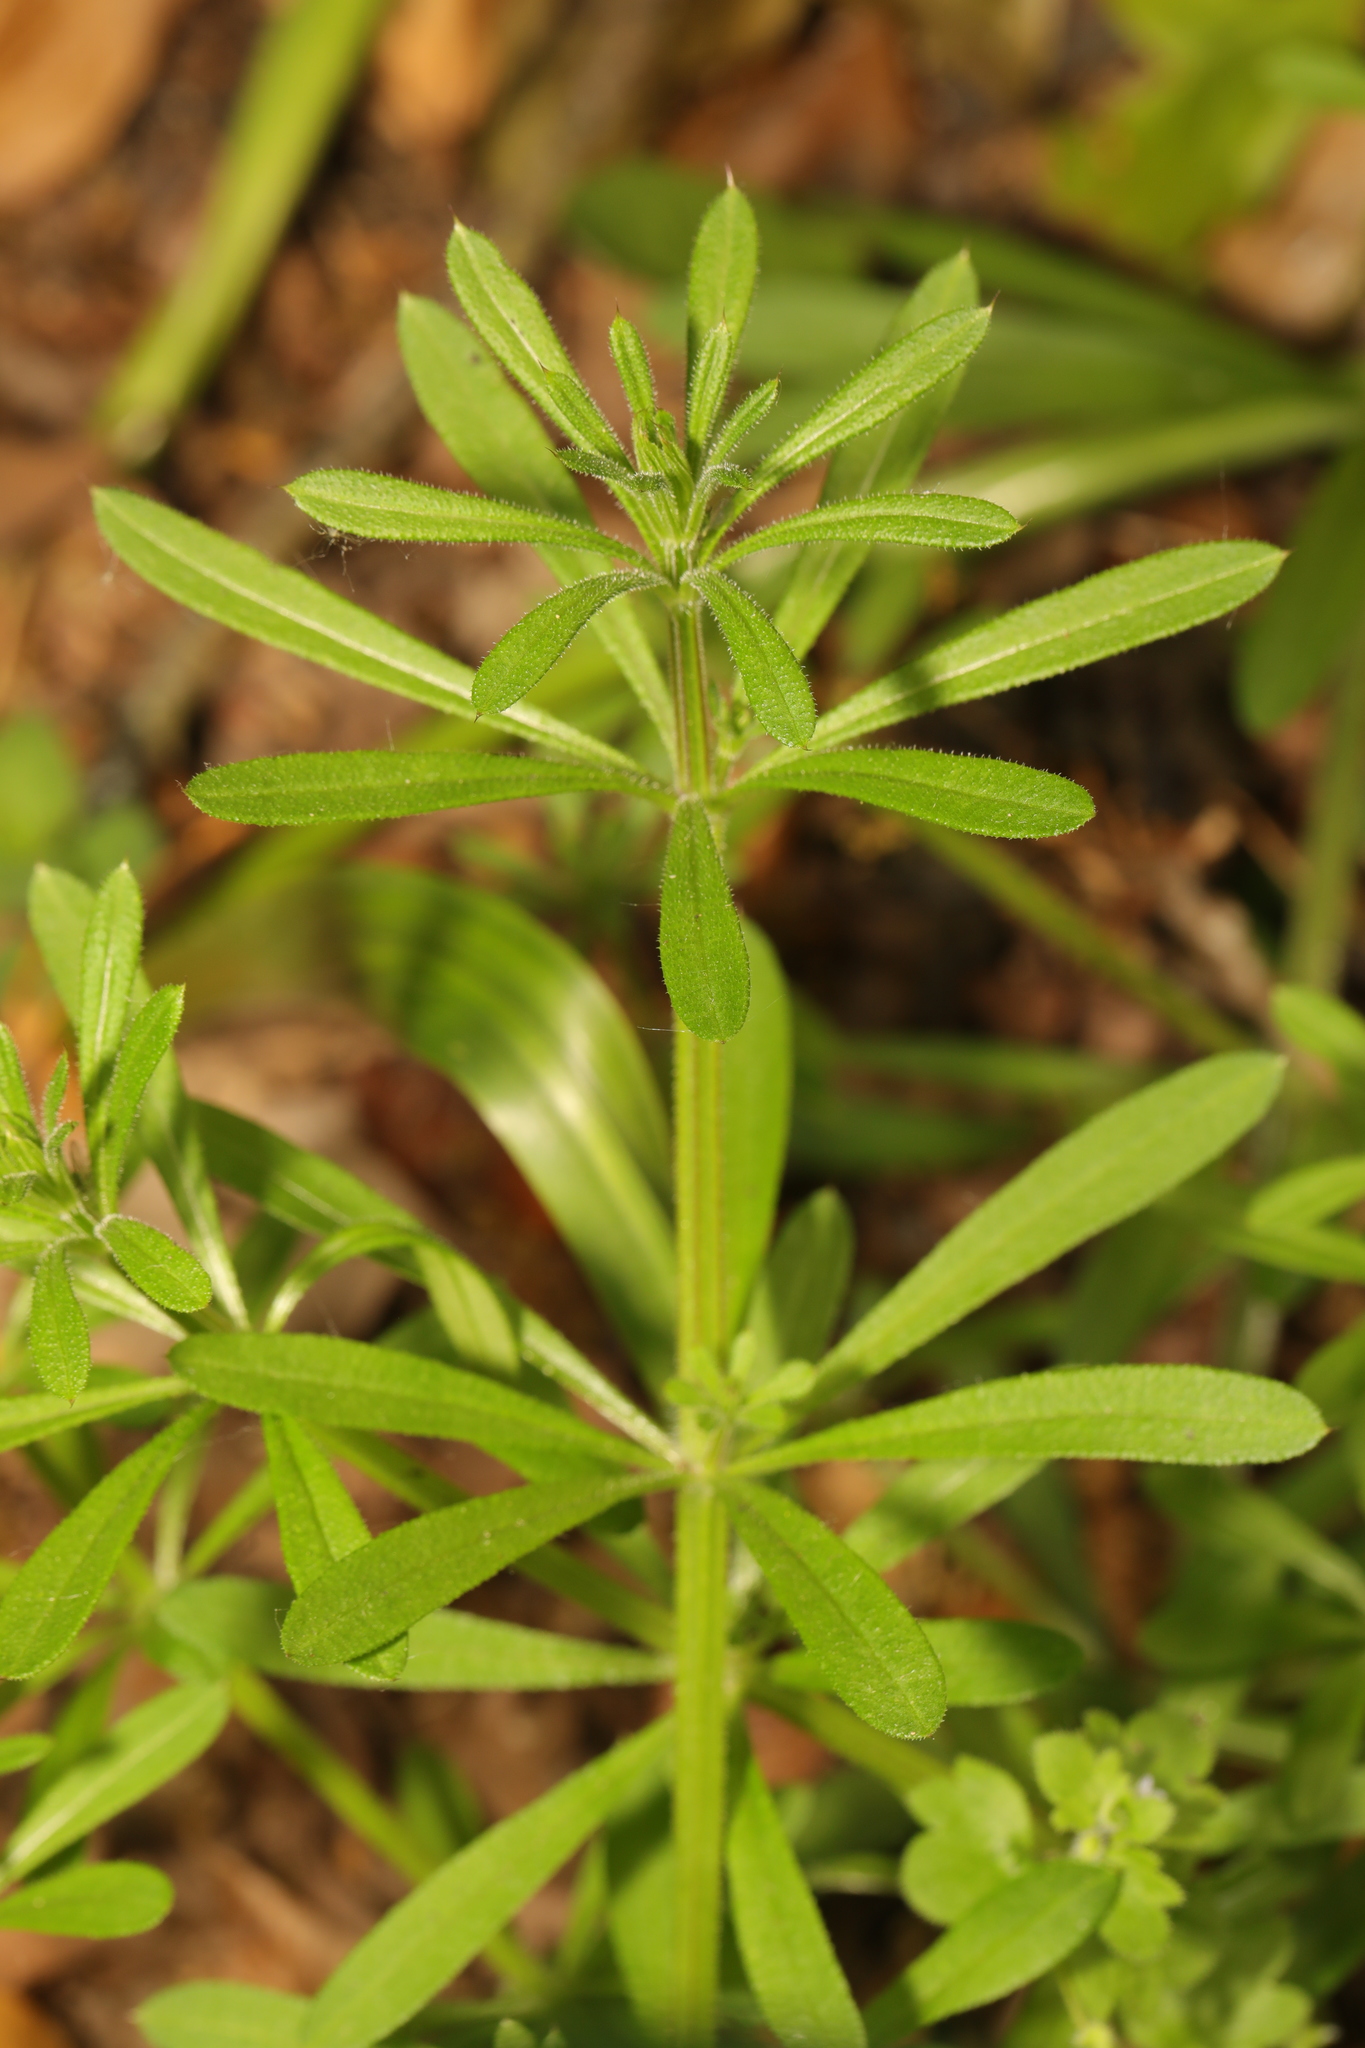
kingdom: Plantae
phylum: Tracheophyta
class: Magnoliopsida
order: Gentianales
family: Rubiaceae
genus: Galium
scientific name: Galium aparine
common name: Cleavers
